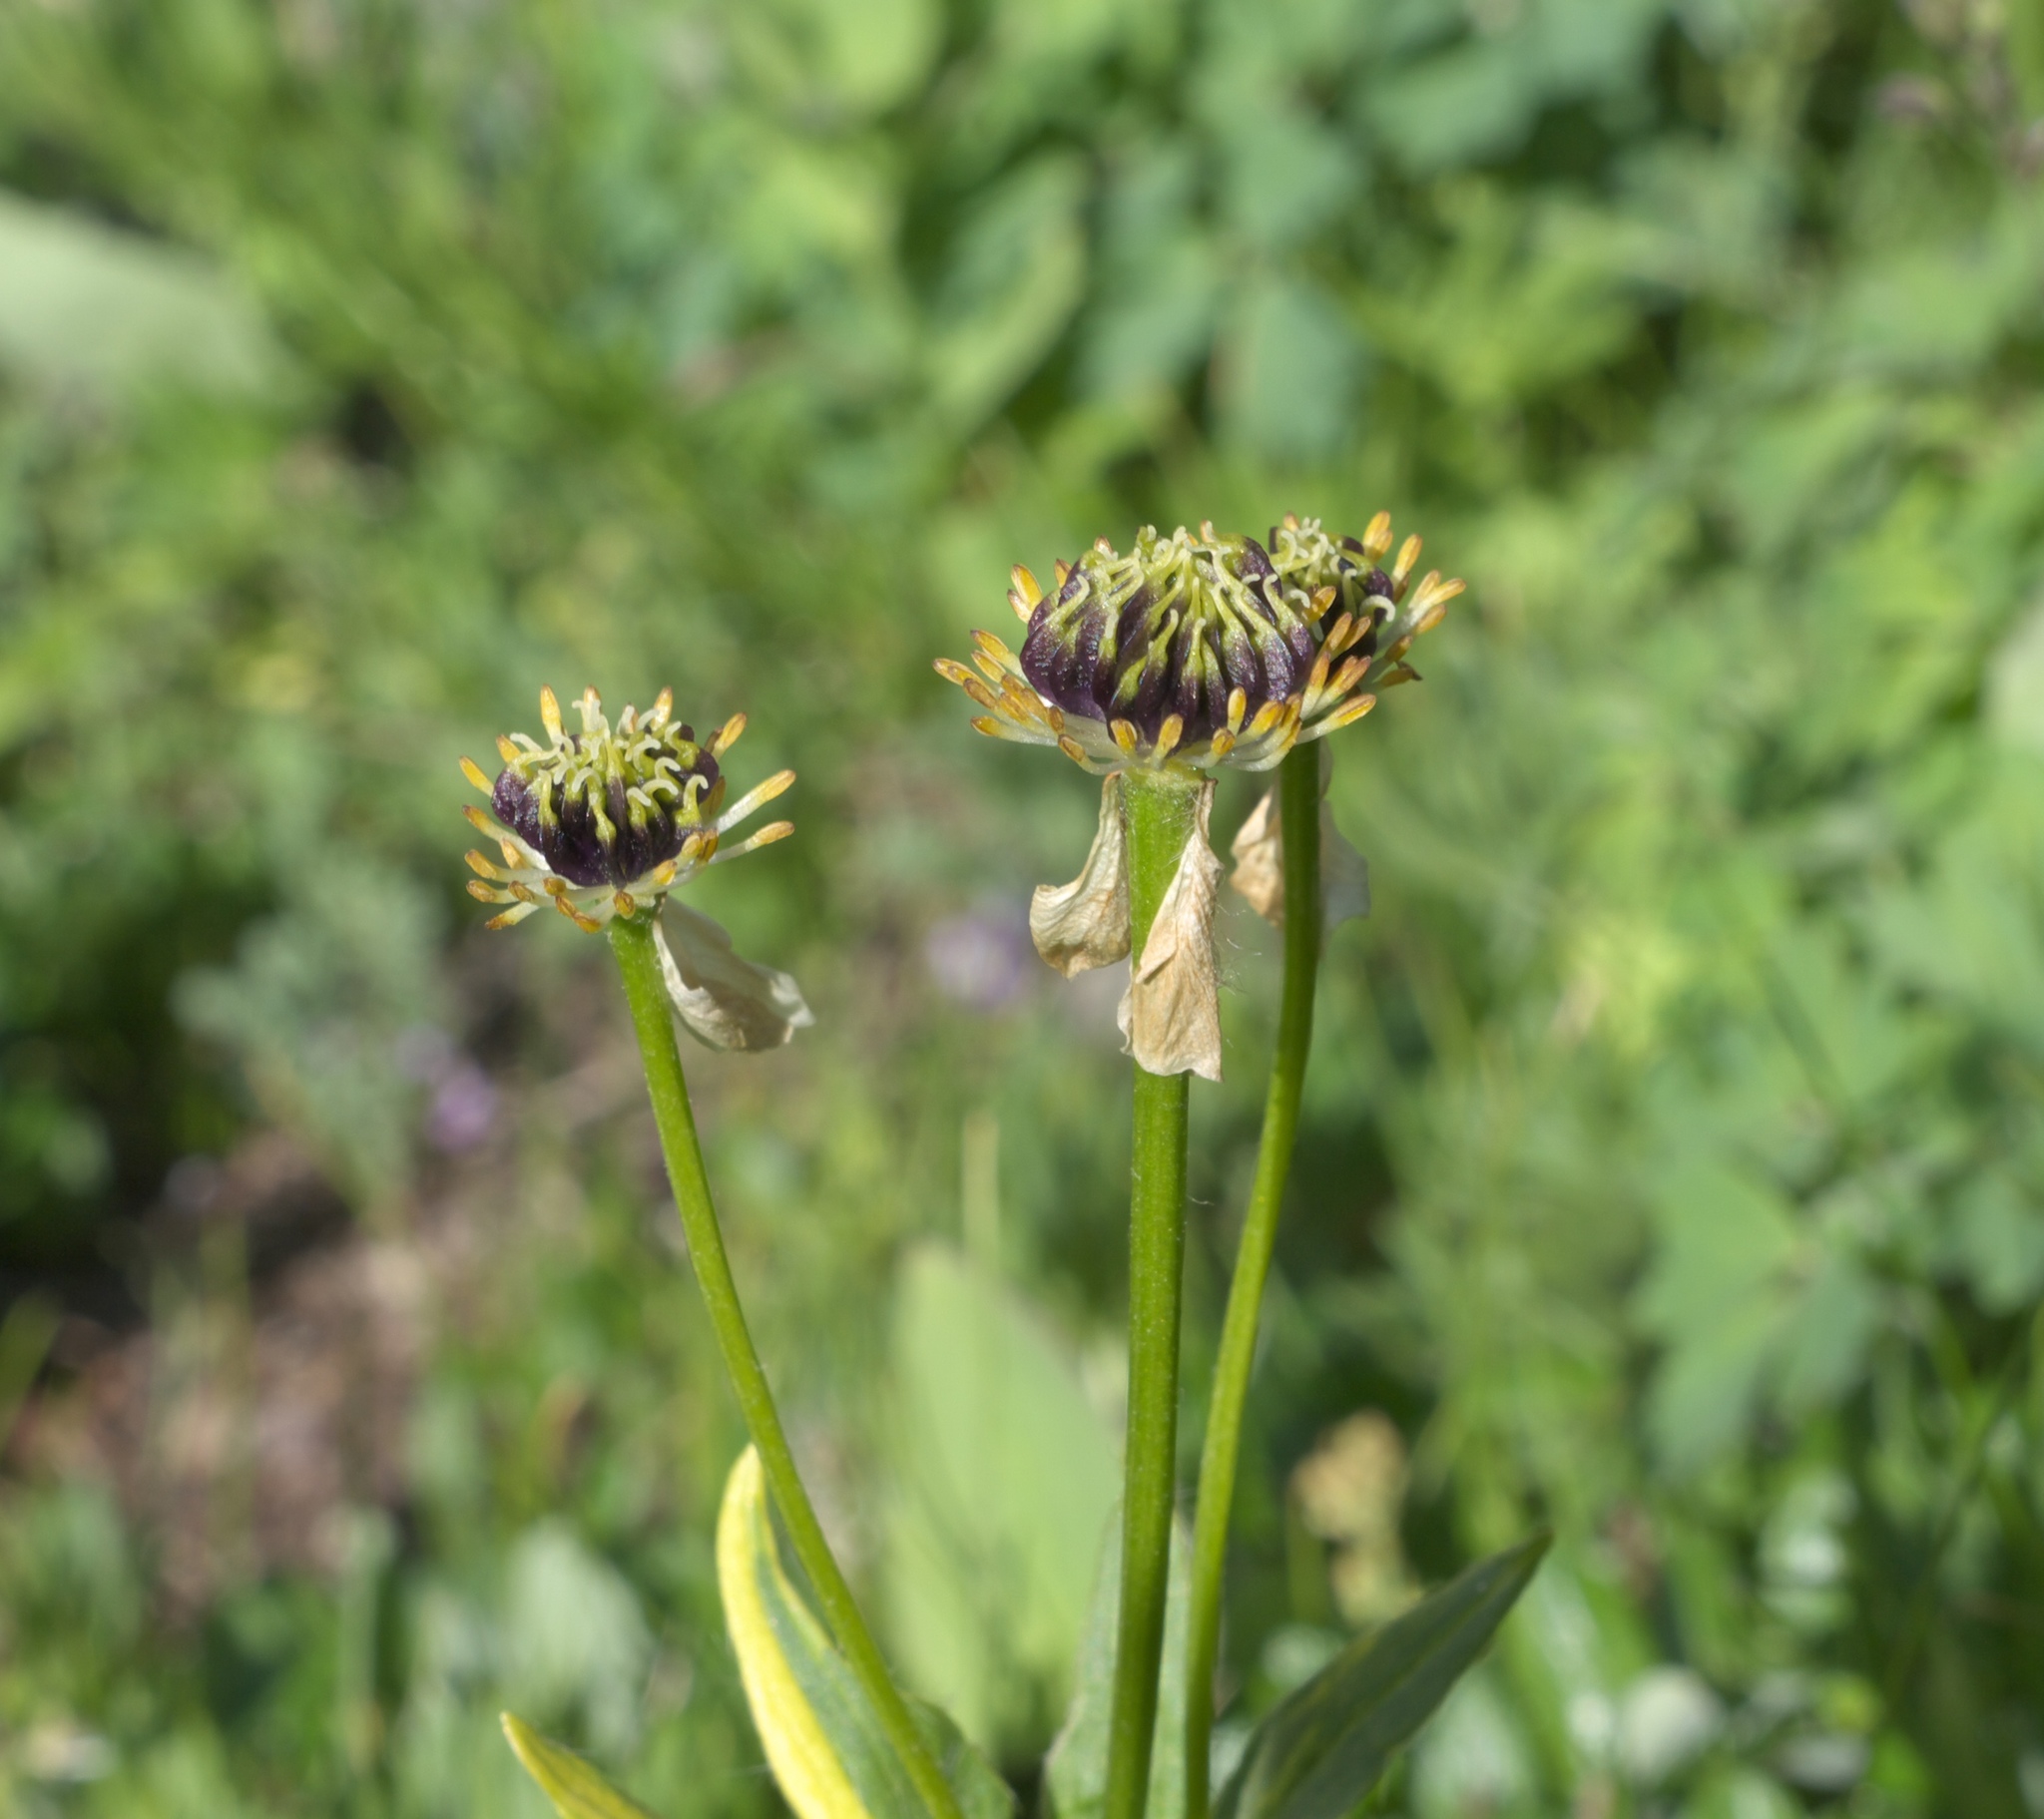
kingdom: Plantae
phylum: Tracheophyta
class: Magnoliopsida
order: Ranunculales
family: Ranunculaceae
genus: Anemonastrum
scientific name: Anemonastrum narcissiflorum
